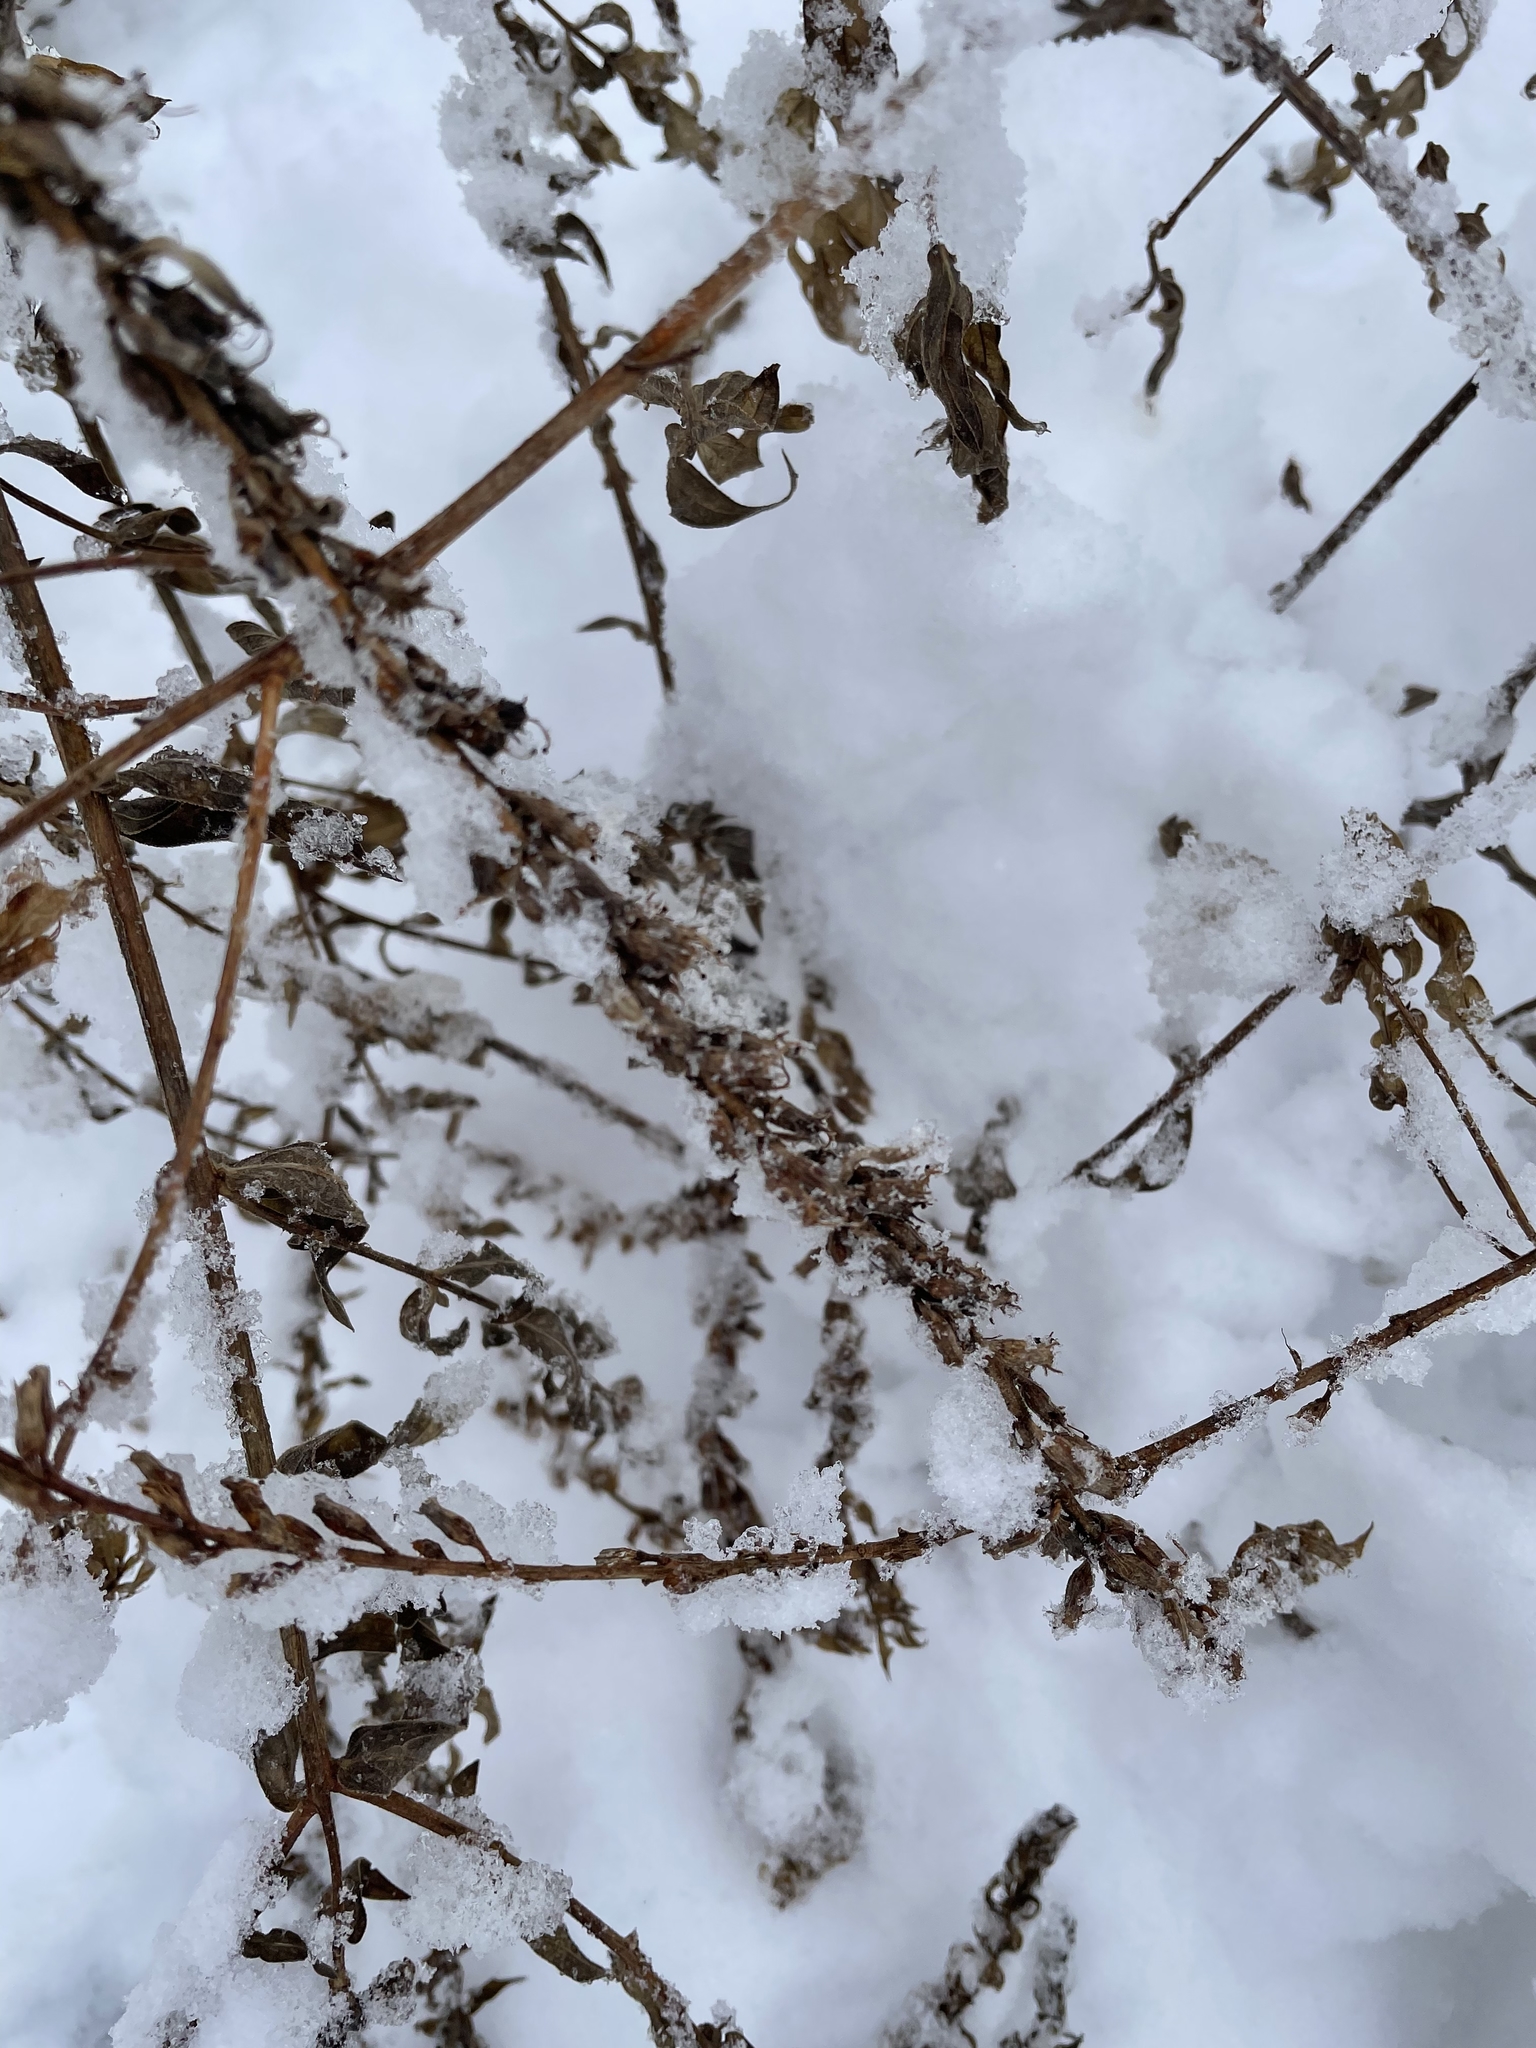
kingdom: Plantae
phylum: Tracheophyta
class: Magnoliopsida
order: Myrtales
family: Lythraceae
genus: Lythrum
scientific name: Lythrum salicaria
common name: Purple loosestrife
